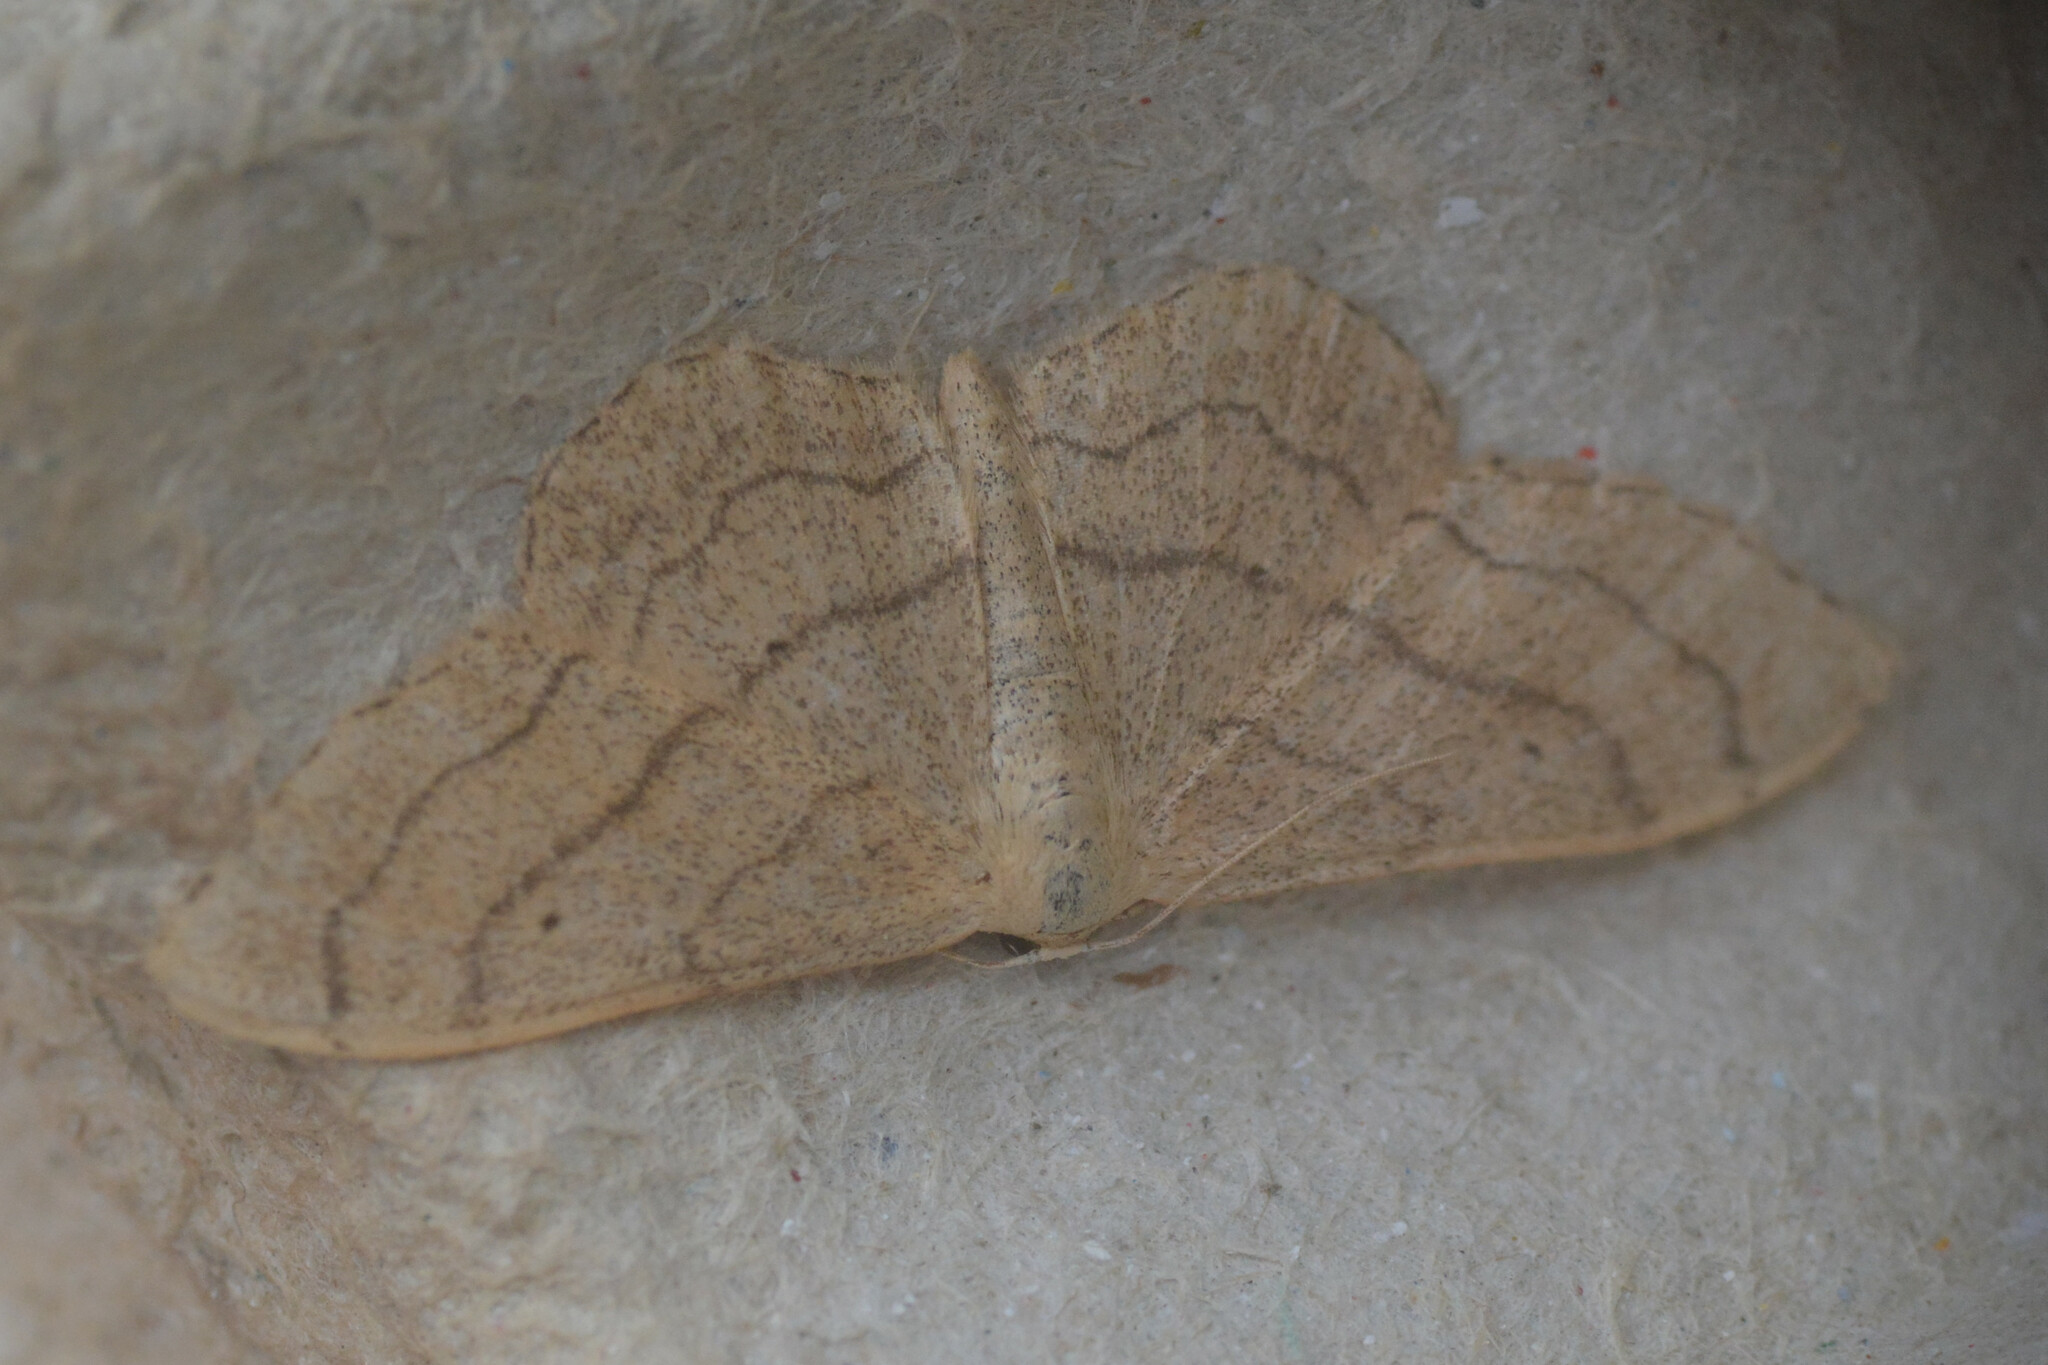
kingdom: Animalia
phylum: Arthropoda
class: Insecta
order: Lepidoptera
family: Geometridae
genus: Idaea
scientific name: Idaea aversata
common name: Riband wave
